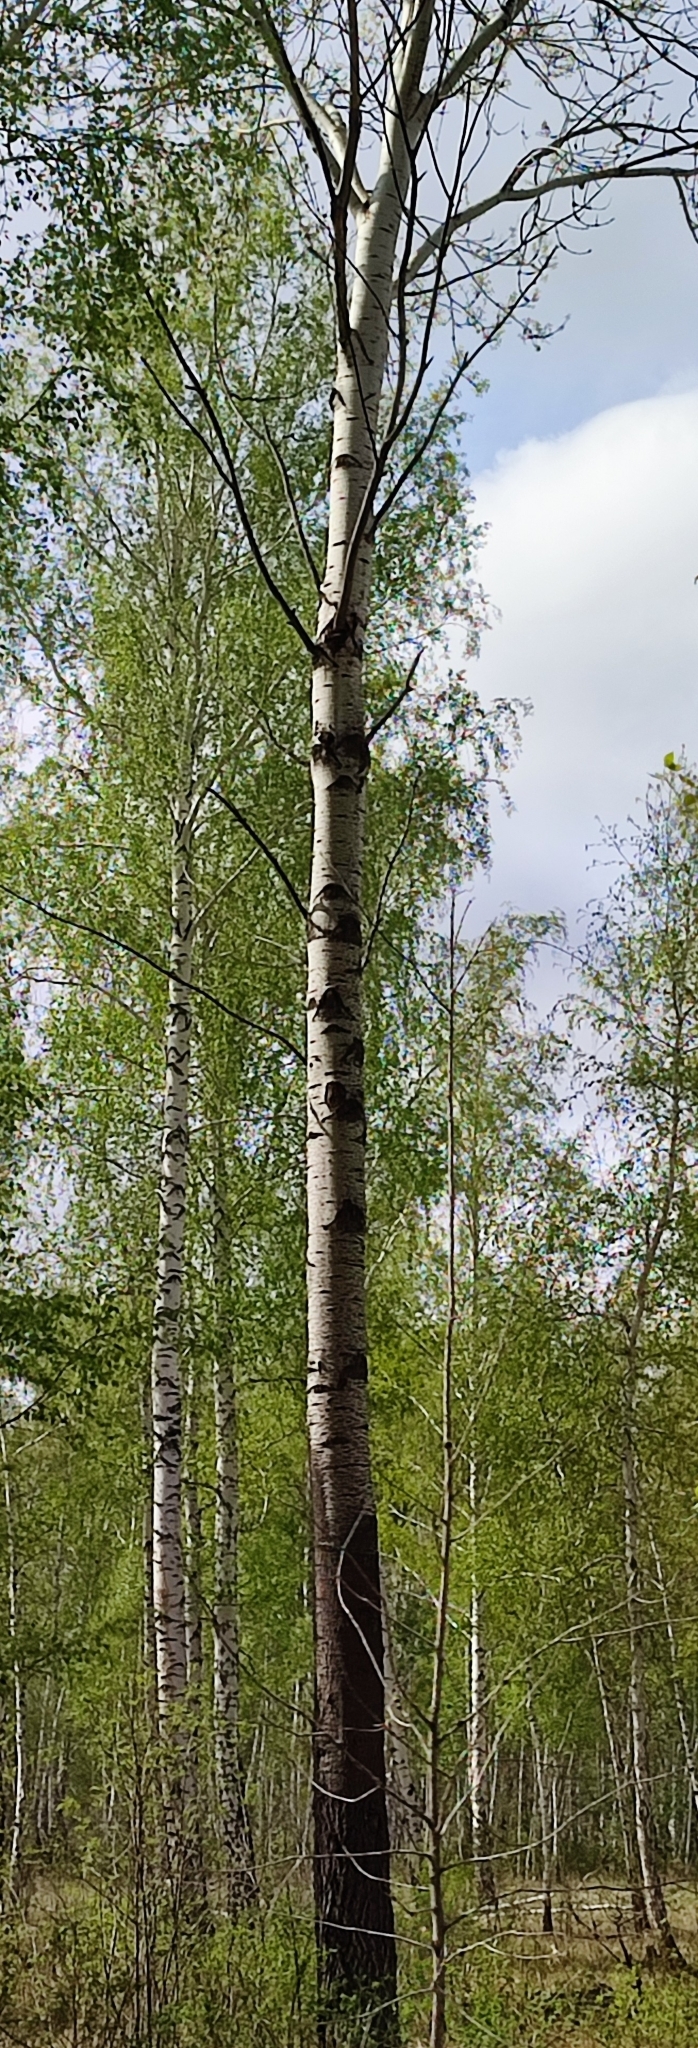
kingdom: Plantae
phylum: Tracheophyta
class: Magnoliopsida
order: Malpighiales
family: Salicaceae
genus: Populus
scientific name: Populus tremula
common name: European aspen
